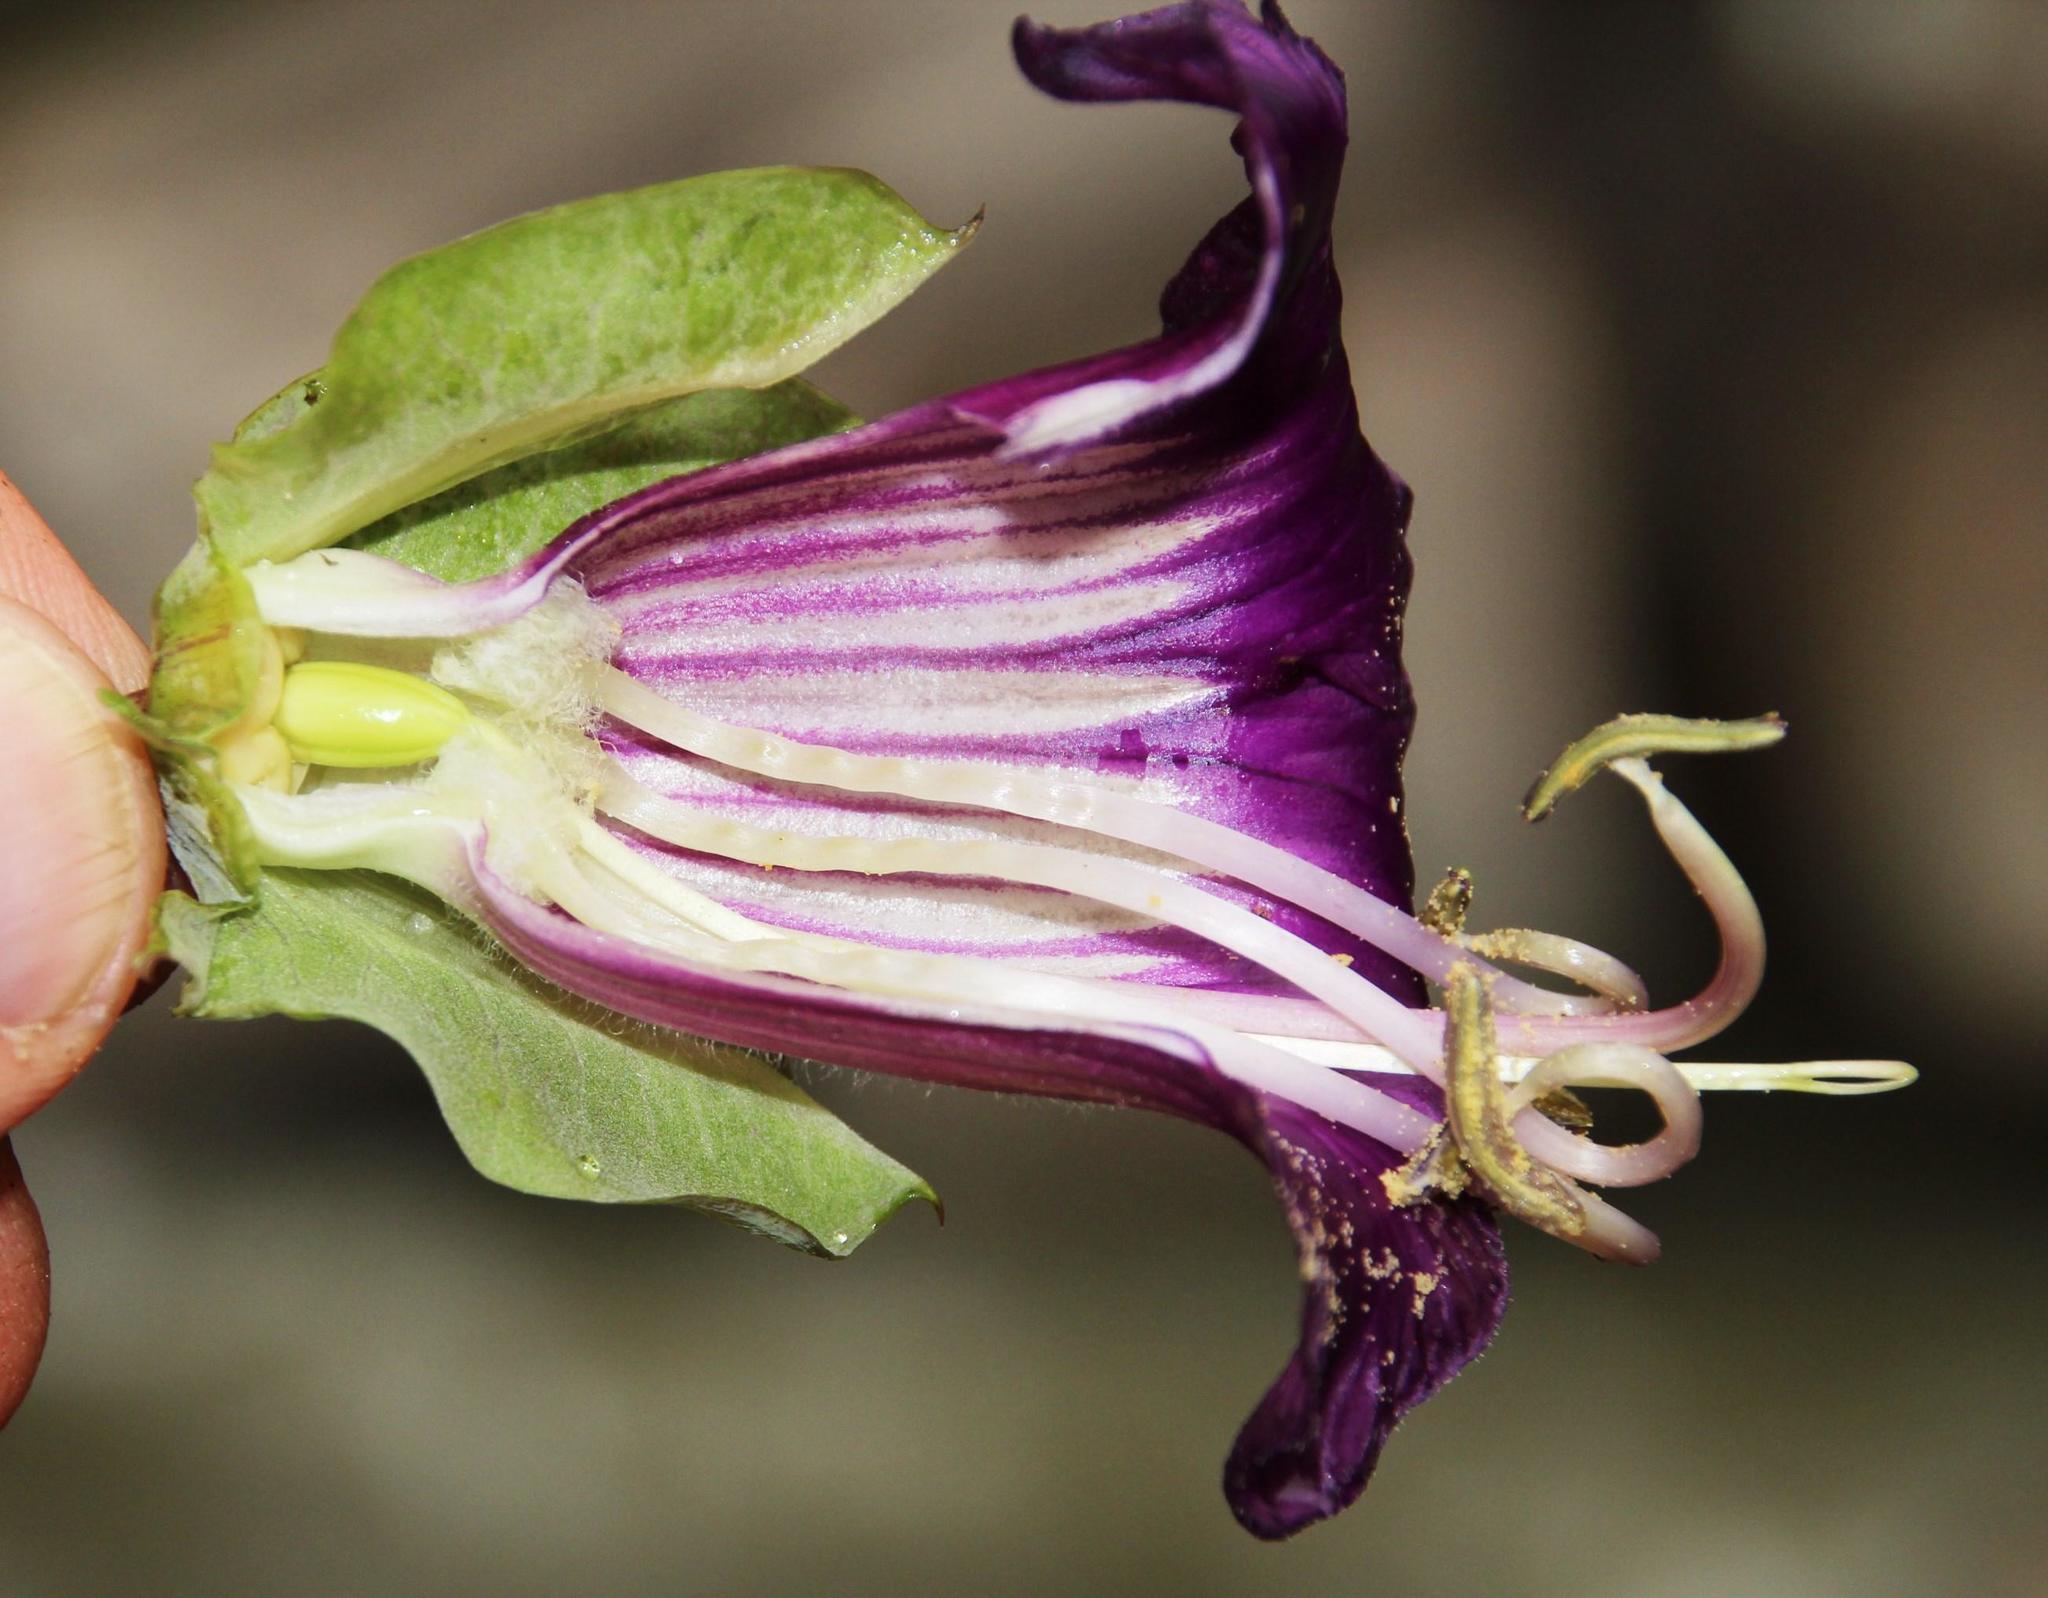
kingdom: Plantae
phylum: Tracheophyta
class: Magnoliopsida
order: Ericales
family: Polemoniaceae
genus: Cobaea
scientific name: Cobaea scandens
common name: Cup-and-saucer-vine
